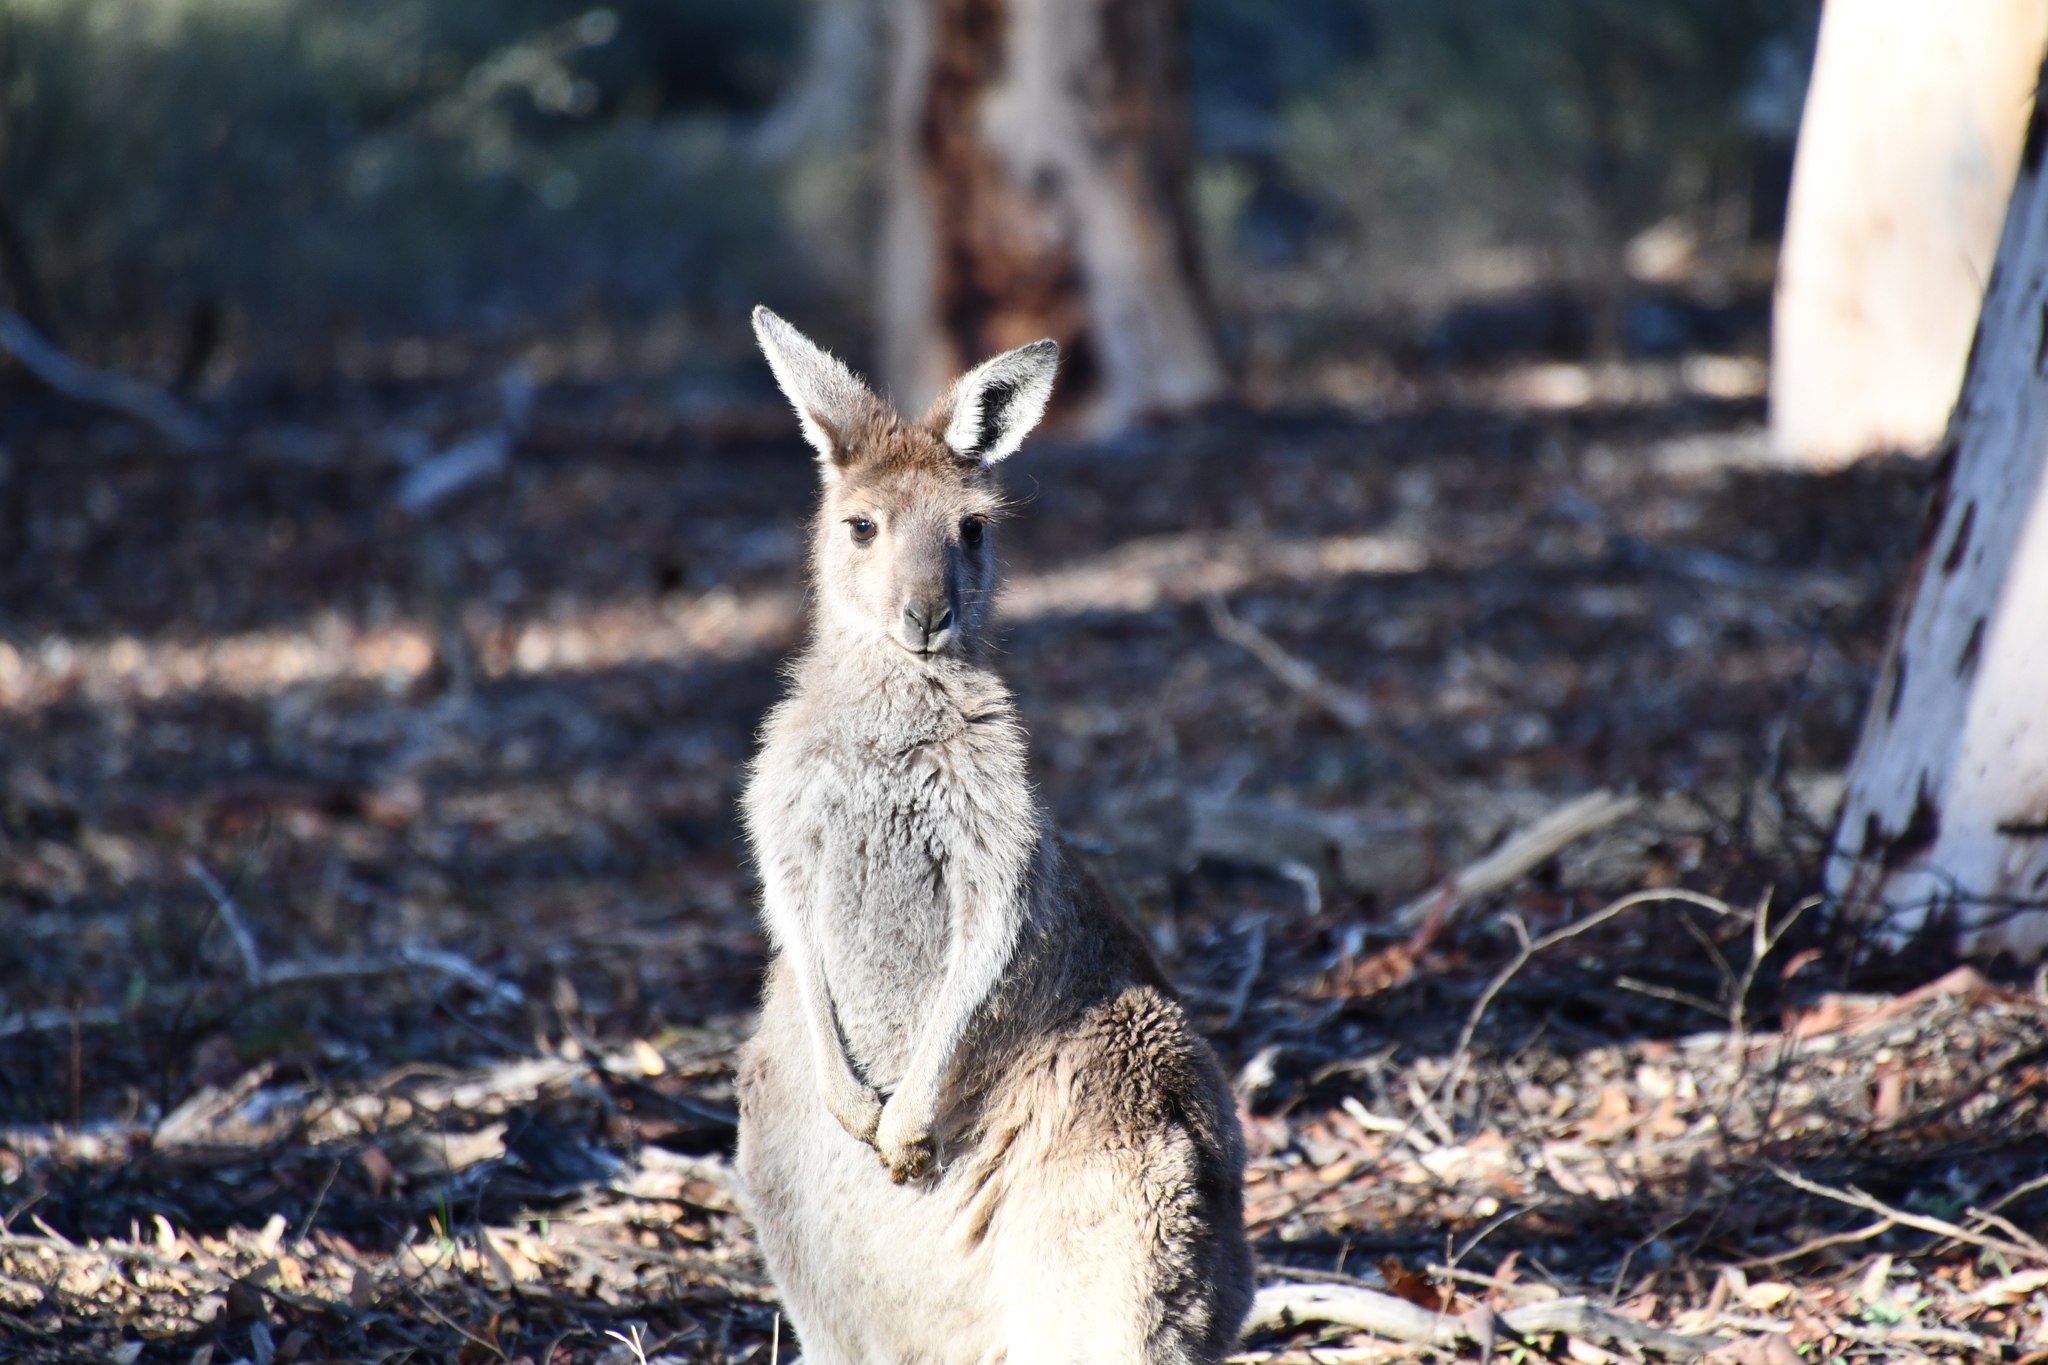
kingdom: Animalia
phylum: Chordata
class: Mammalia
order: Diprotodontia
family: Macropodidae
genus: Macropus
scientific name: Macropus fuliginosus
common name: Western grey kangaroo
